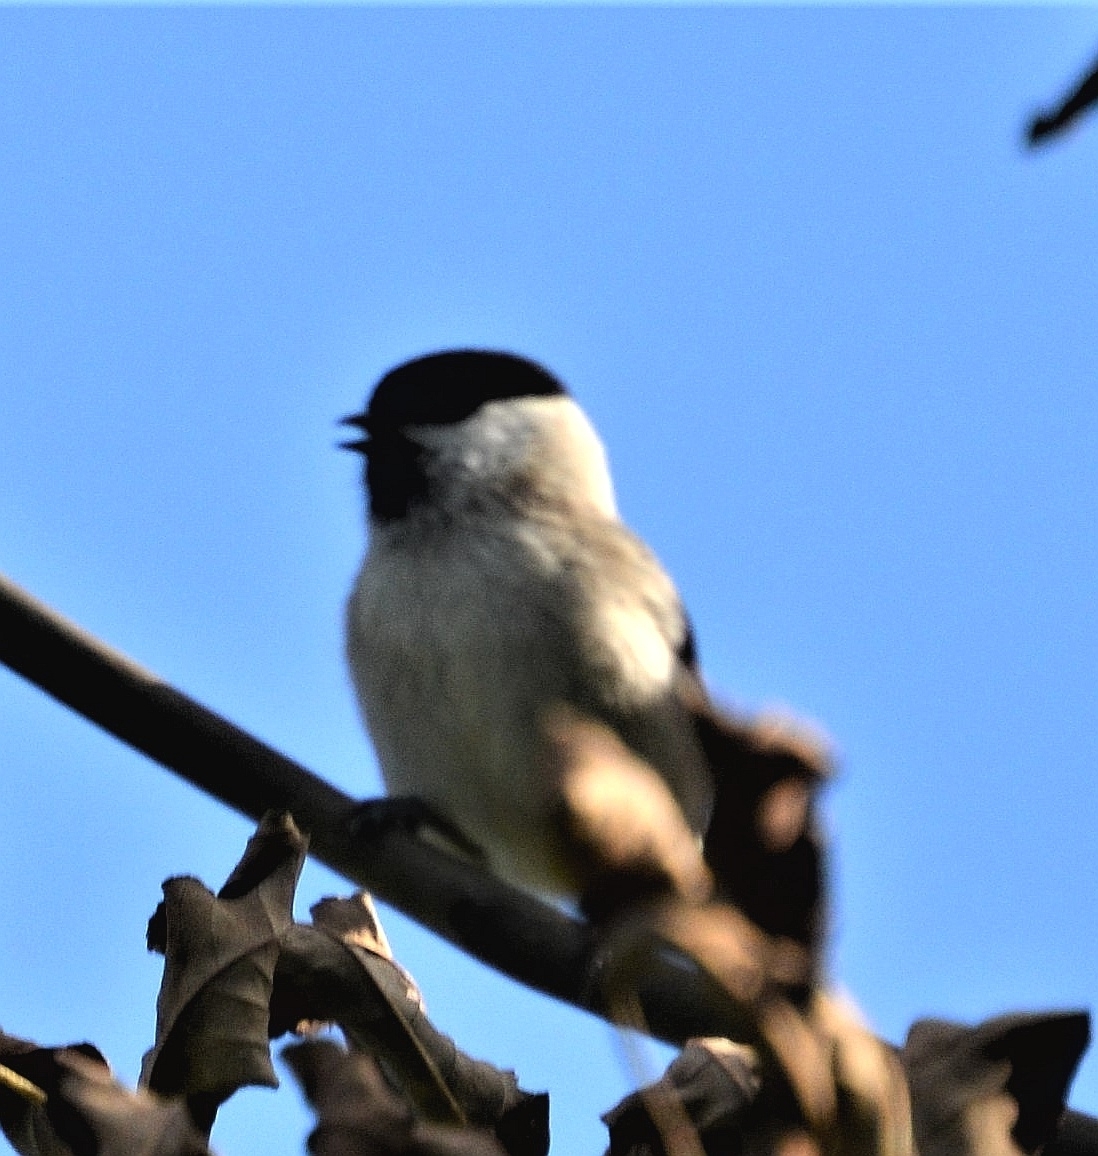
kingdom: Animalia
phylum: Chordata
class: Aves
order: Passeriformes
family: Paridae
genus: Poecile
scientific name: Poecile palustris
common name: Marsh tit
